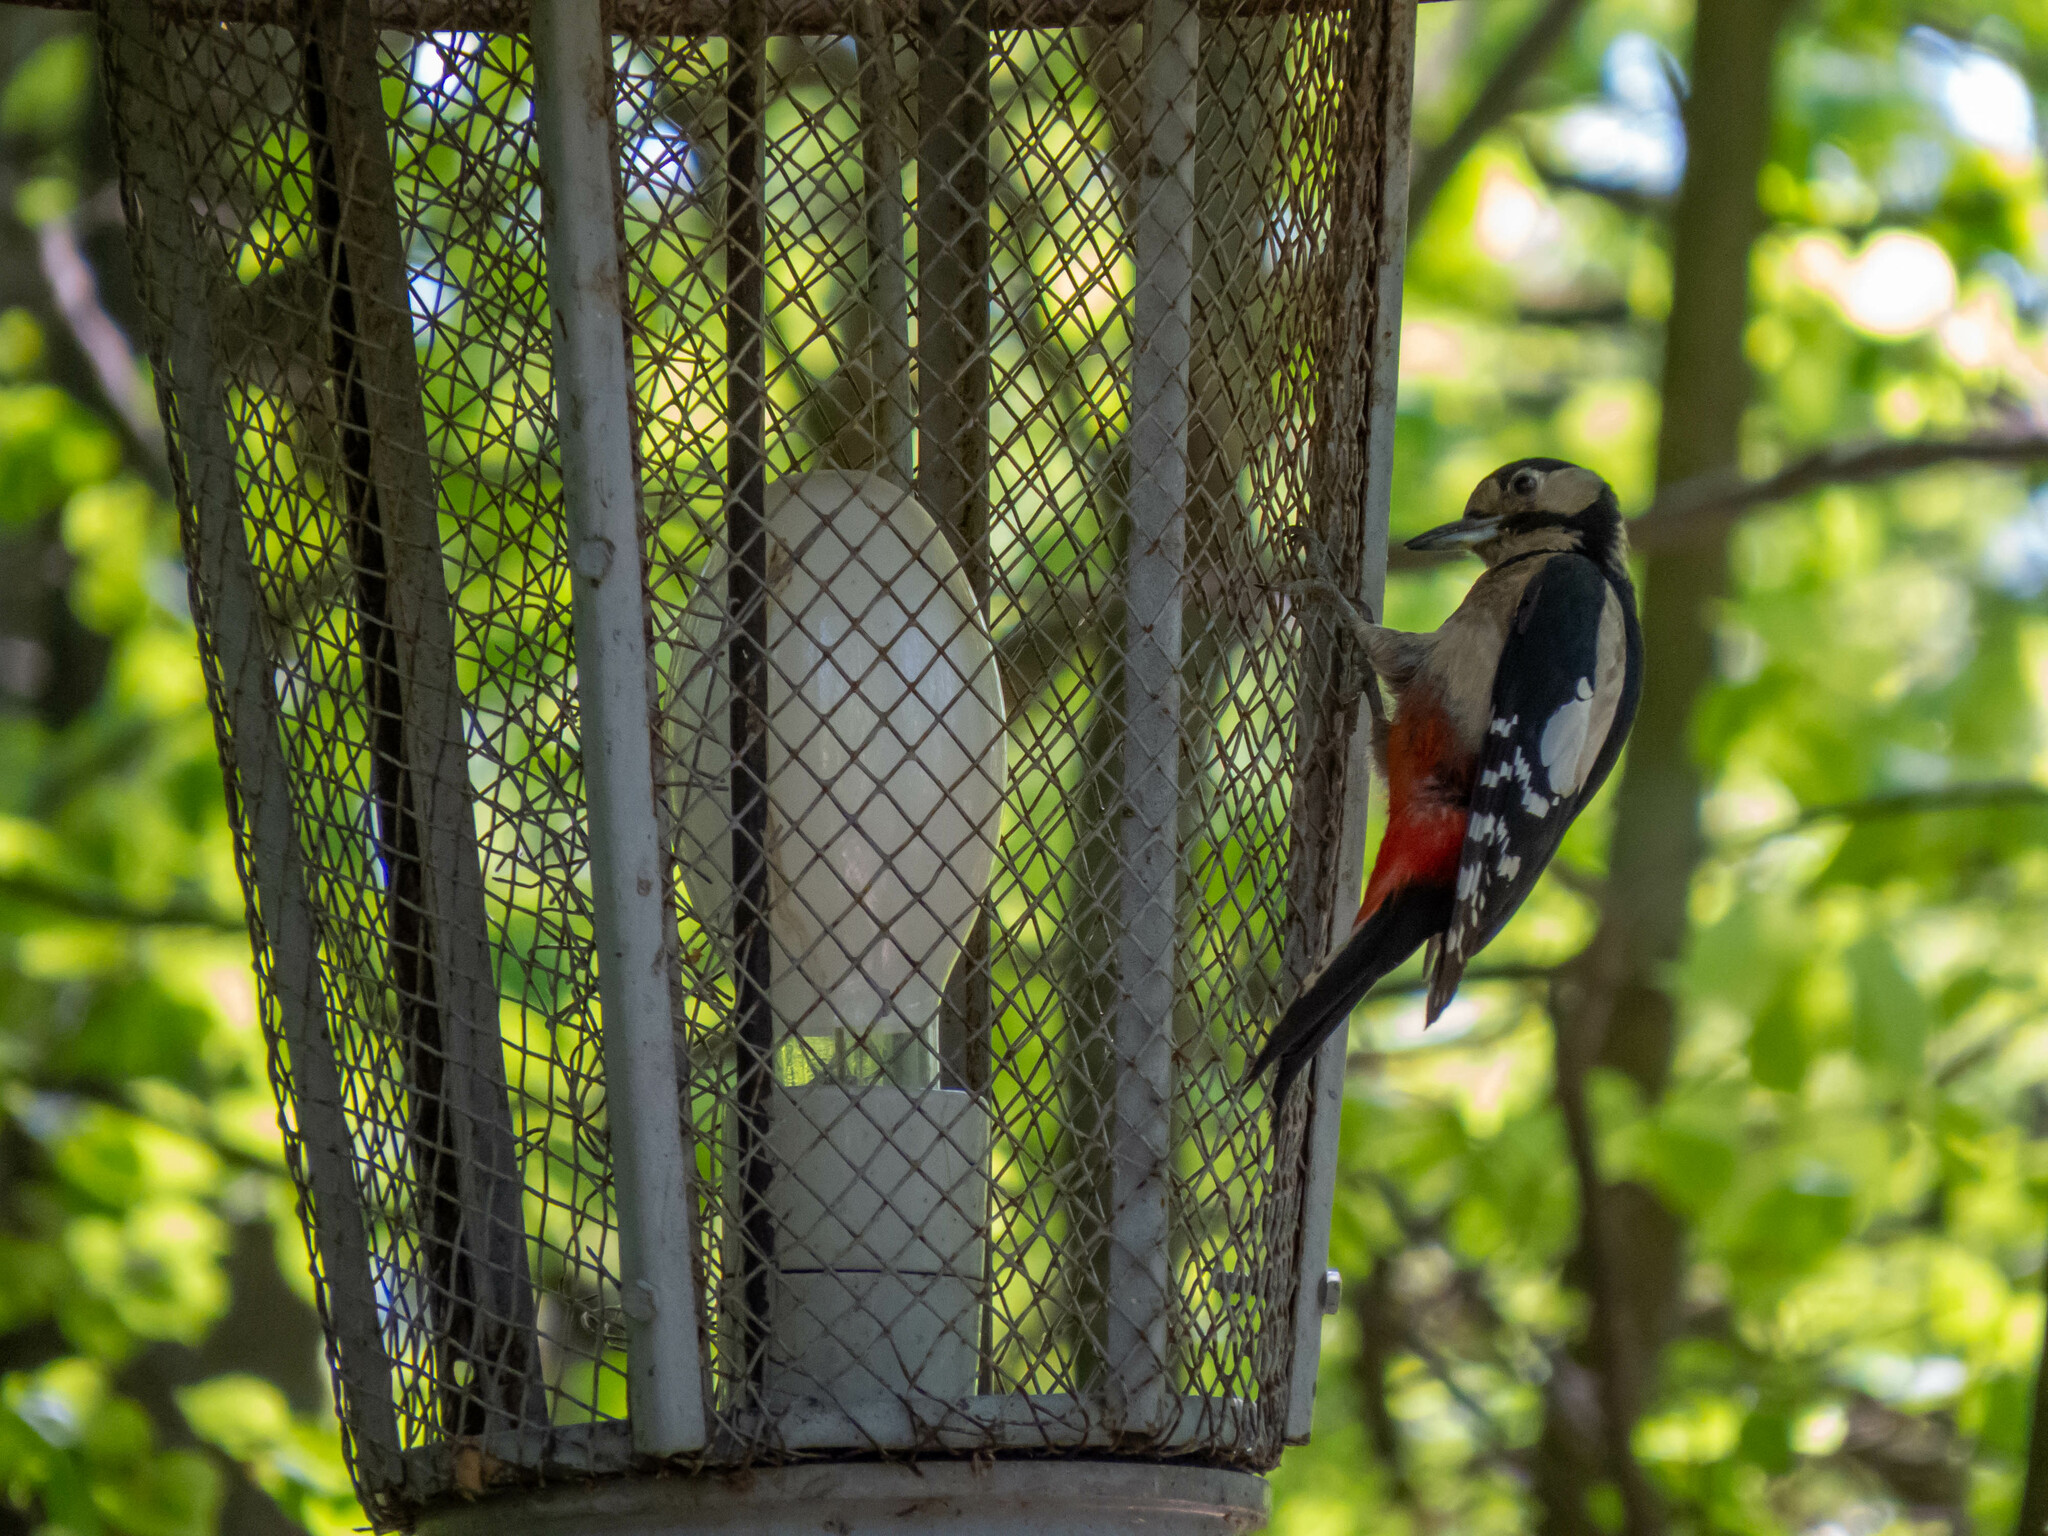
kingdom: Animalia
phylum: Chordata
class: Aves
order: Piciformes
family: Picidae
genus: Dendrocopos
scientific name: Dendrocopos major
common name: Great spotted woodpecker
